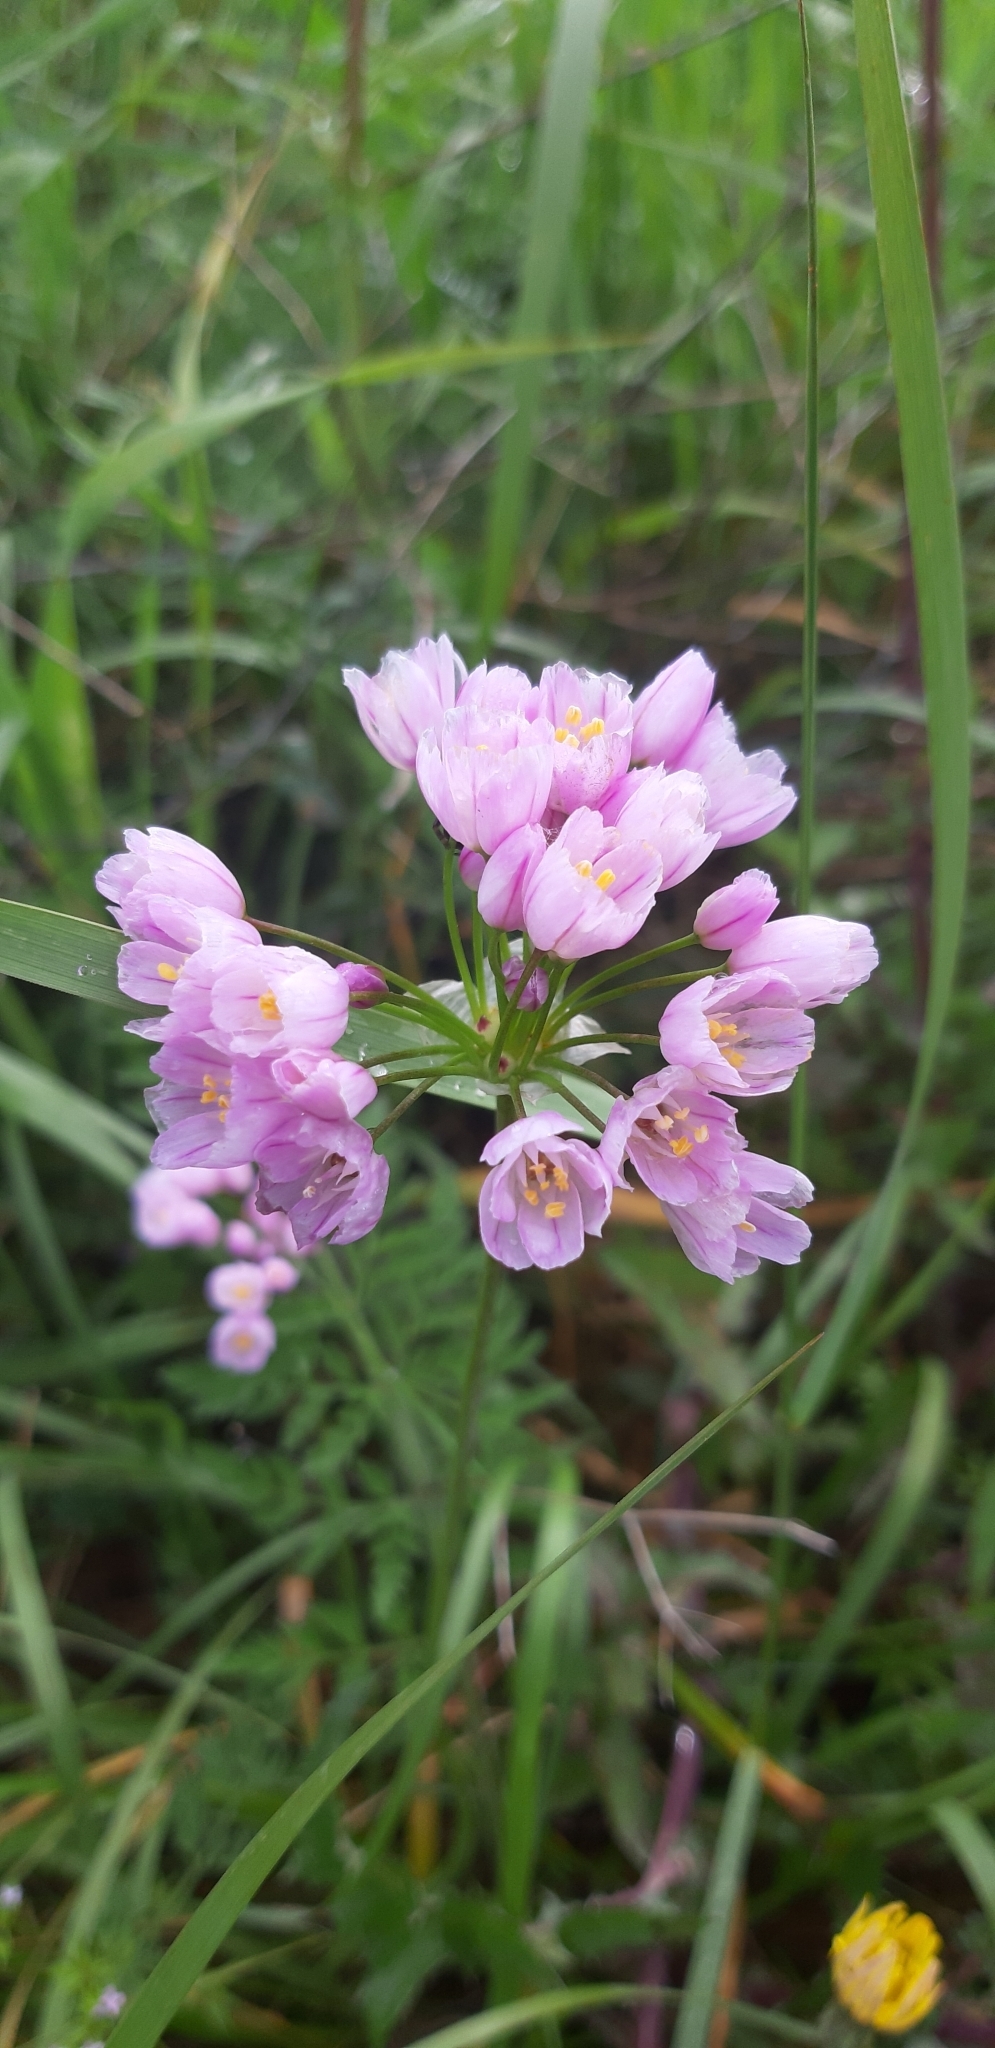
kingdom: Plantae
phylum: Tracheophyta
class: Liliopsida
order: Asparagales
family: Amaryllidaceae
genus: Allium
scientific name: Allium roseum
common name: Rosy garlic
